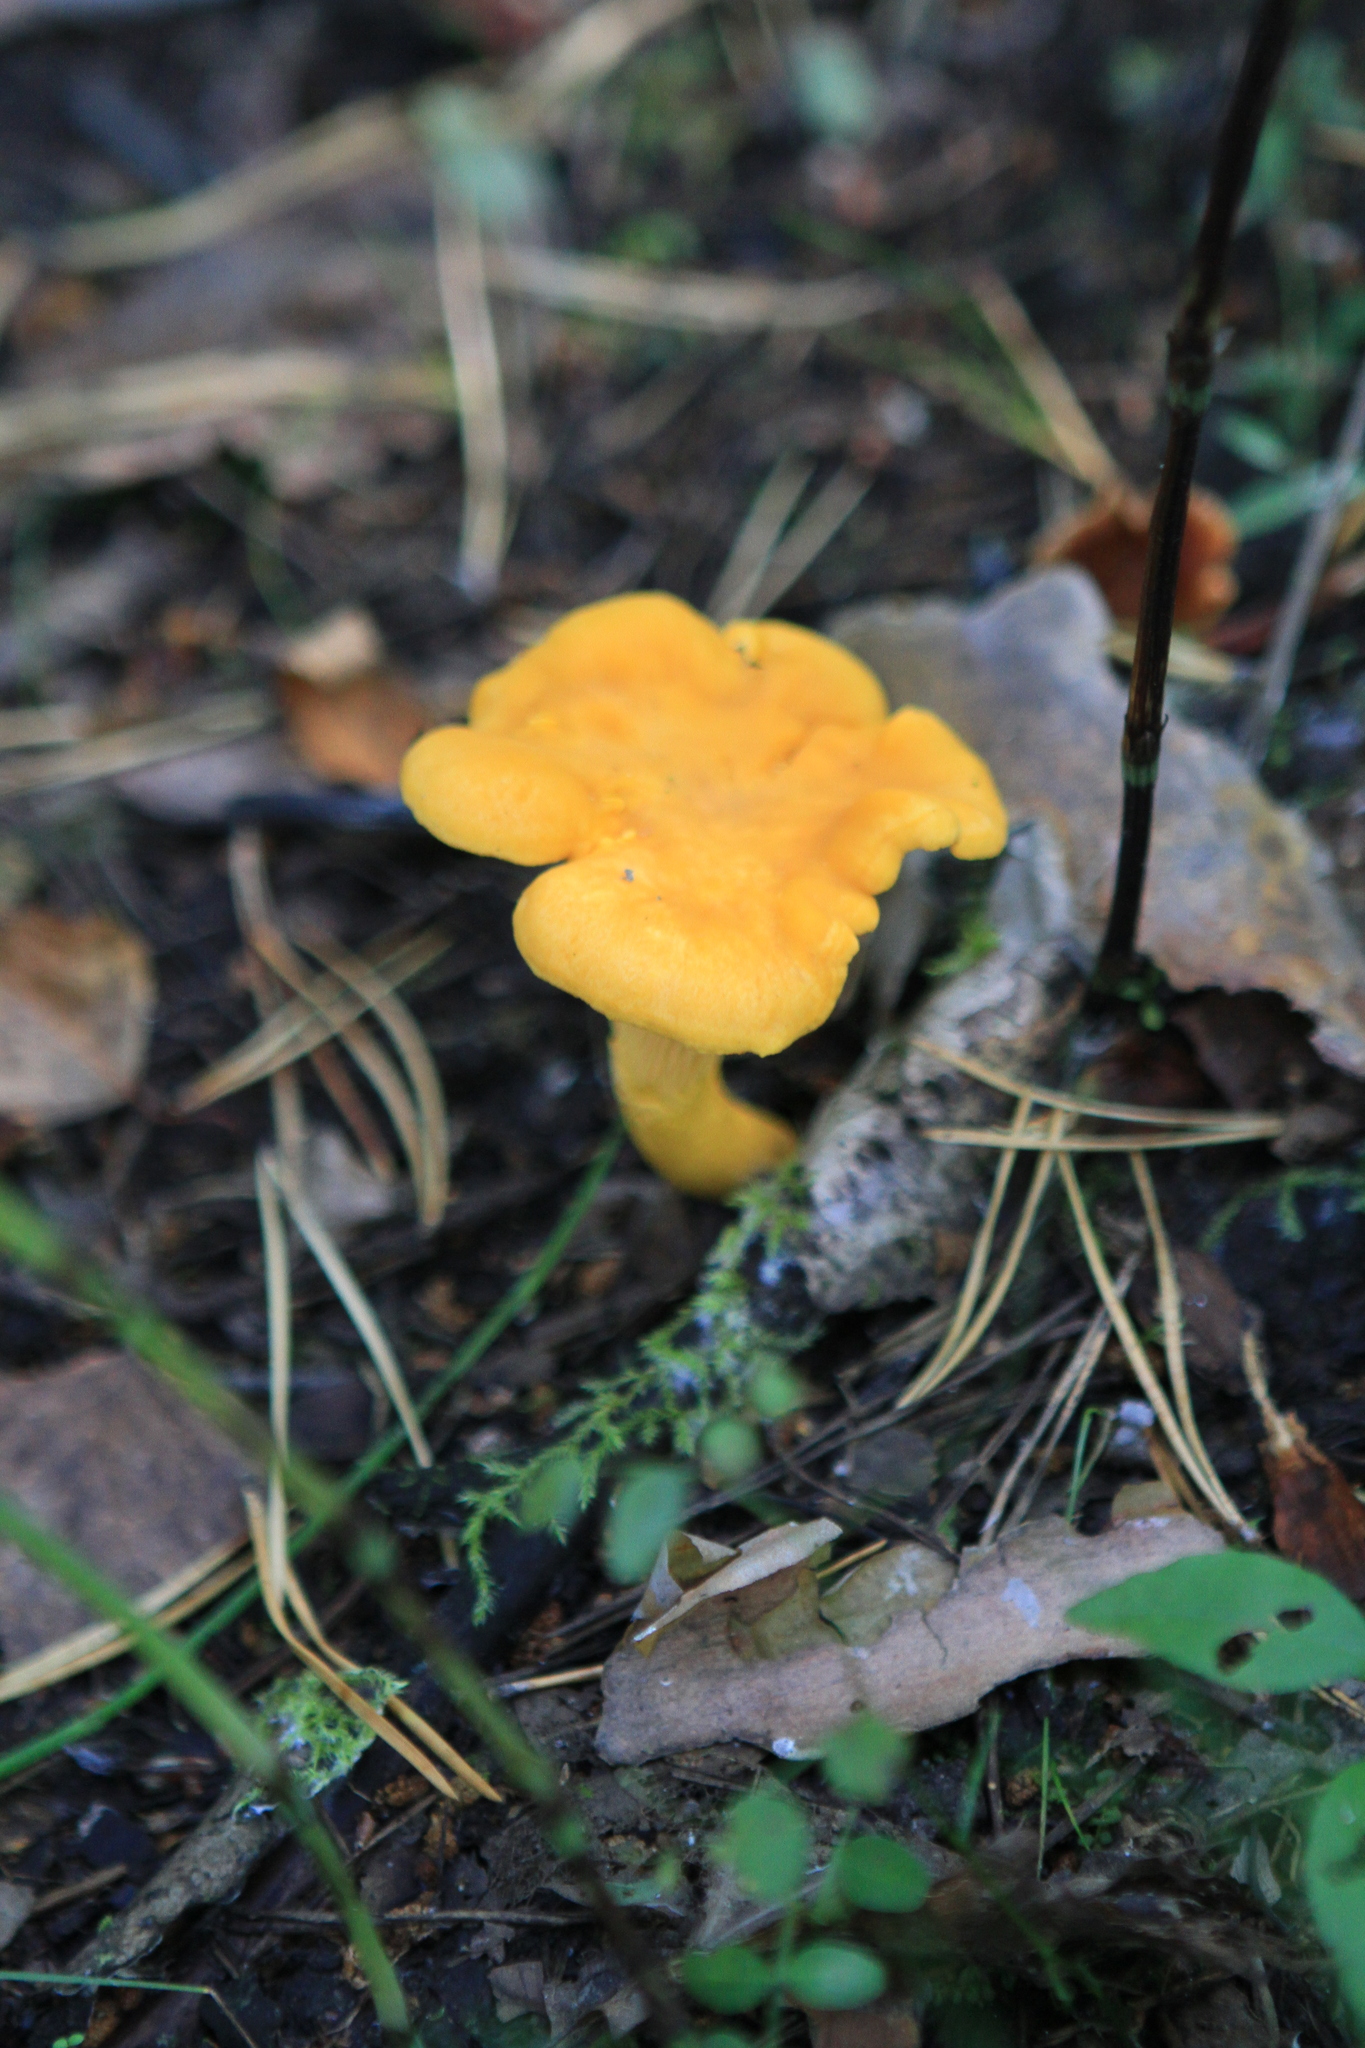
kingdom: Fungi
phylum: Basidiomycota
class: Agaricomycetes
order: Cantharellales
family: Hydnaceae
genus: Cantharellus
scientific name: Cantharellus cibarius
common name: Chanterelle
